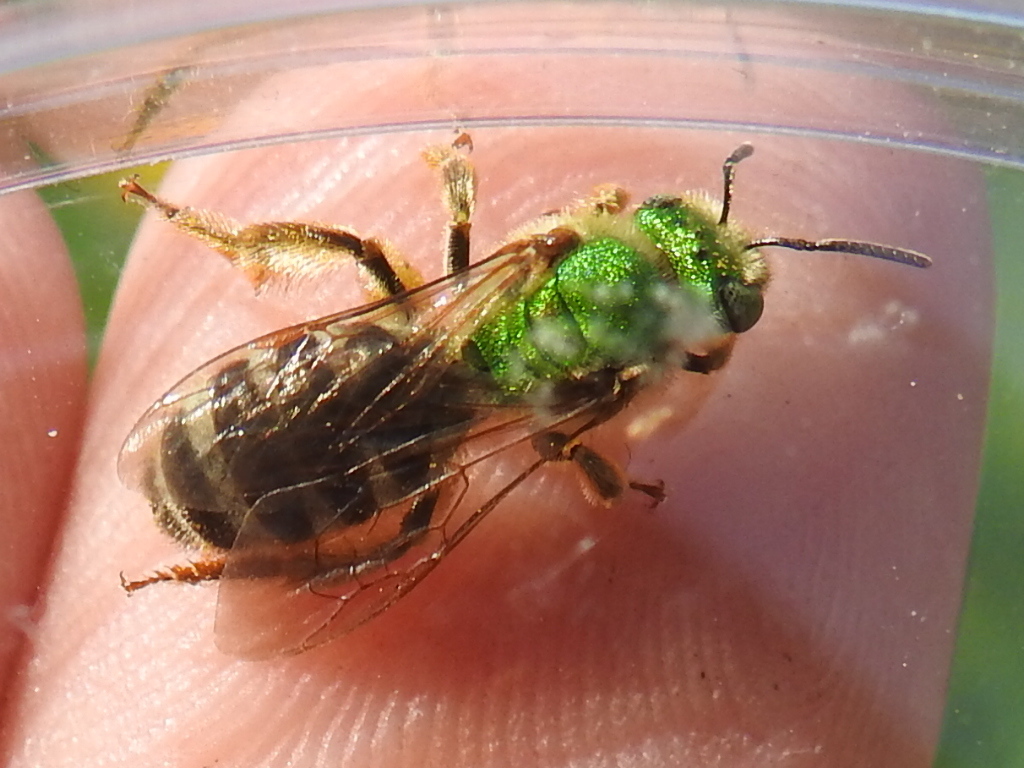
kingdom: Animalia
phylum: Arthropoda
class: Insecta
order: Hymenoptera
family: Halictidae
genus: Agapostemon
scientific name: Agapostemon virescens
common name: Bicolored striped sweat bee
